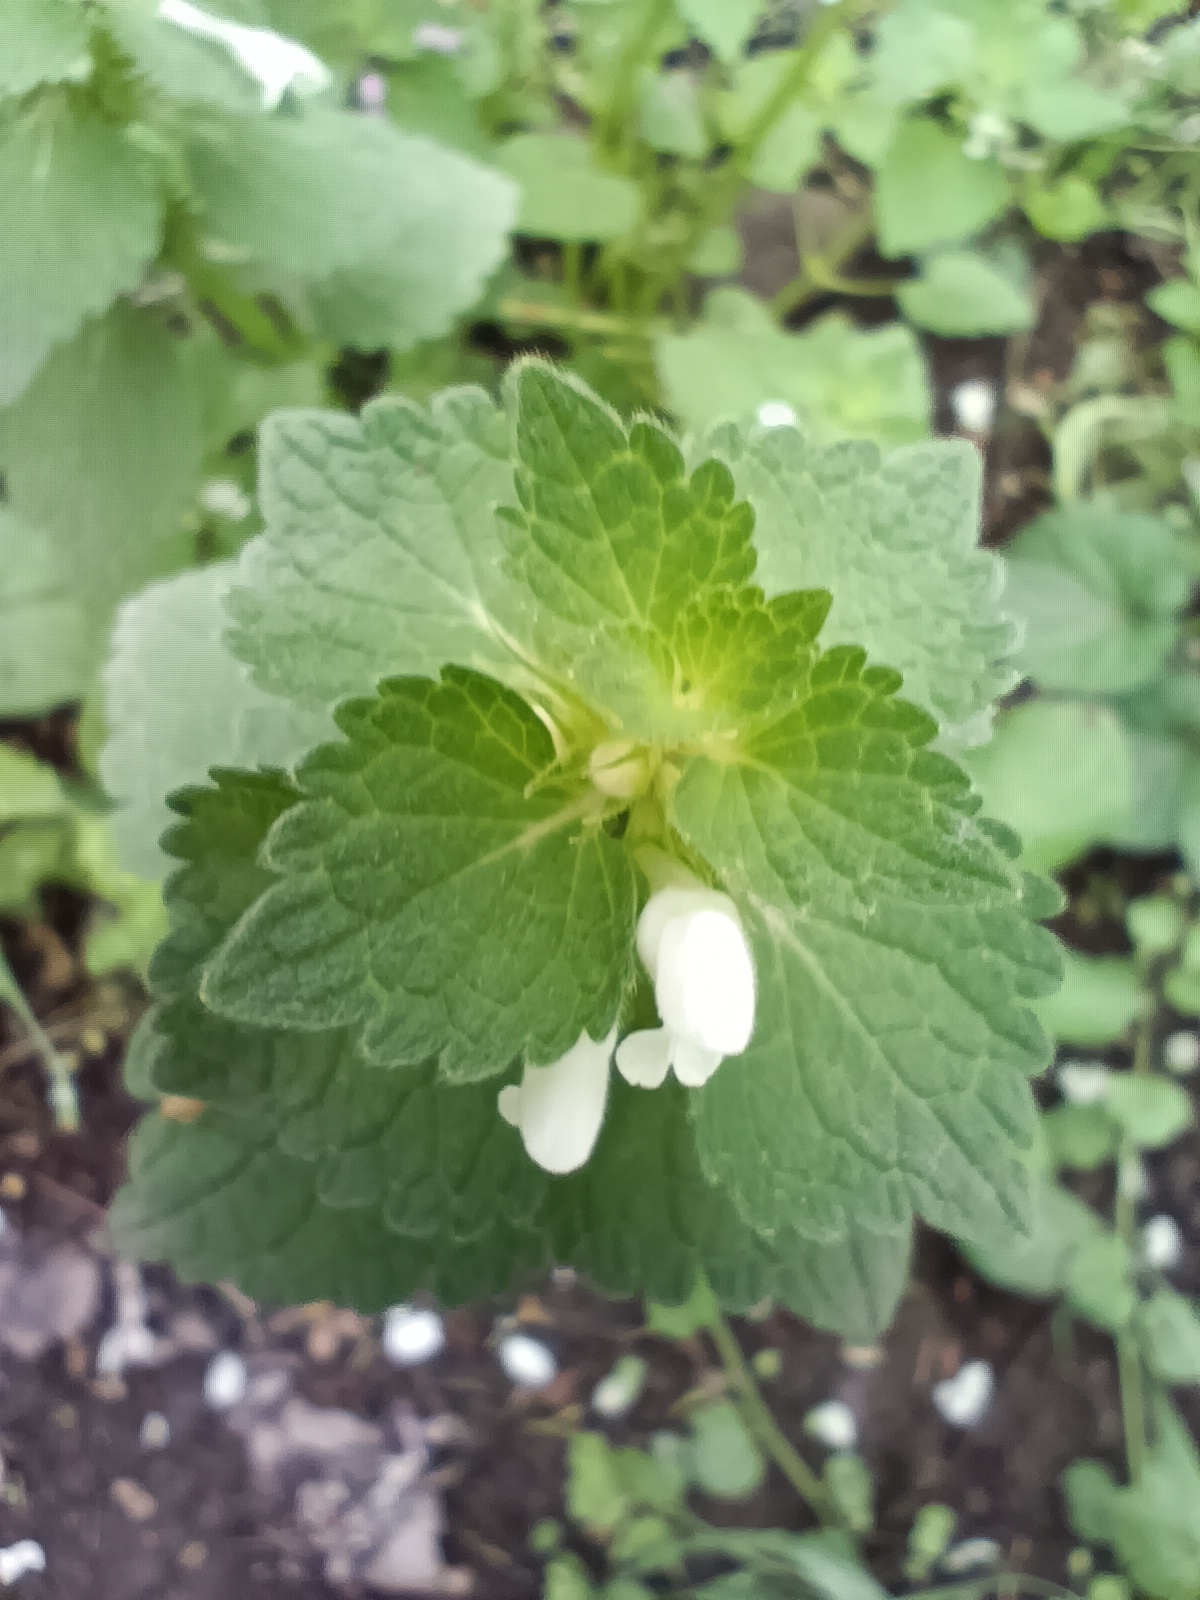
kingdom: Plantae
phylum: Tracheophyta
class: Magnoliopsida
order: Lamiales
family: Lamiaceae
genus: Lamium
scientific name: Lamium purpureum
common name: Red dead-nettle
